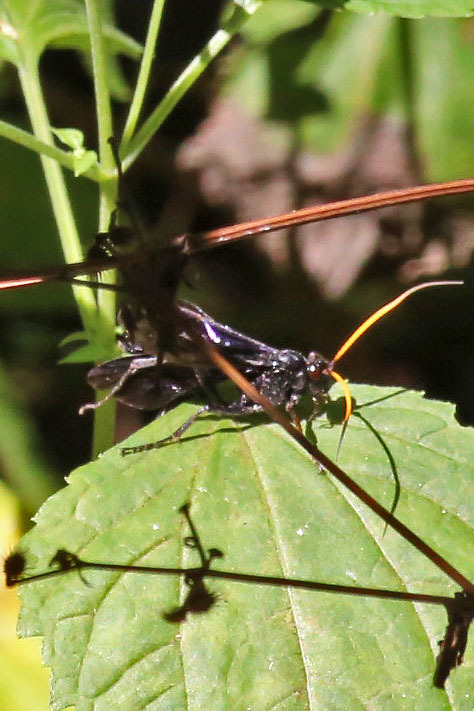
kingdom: Animalia
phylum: Arthropoda
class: Insecta
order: Hymenoptera
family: Ichneumonidae
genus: Gnamptopelta
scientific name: Gnamptopelta obsidianator
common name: Bent-shielded besieger wasp
